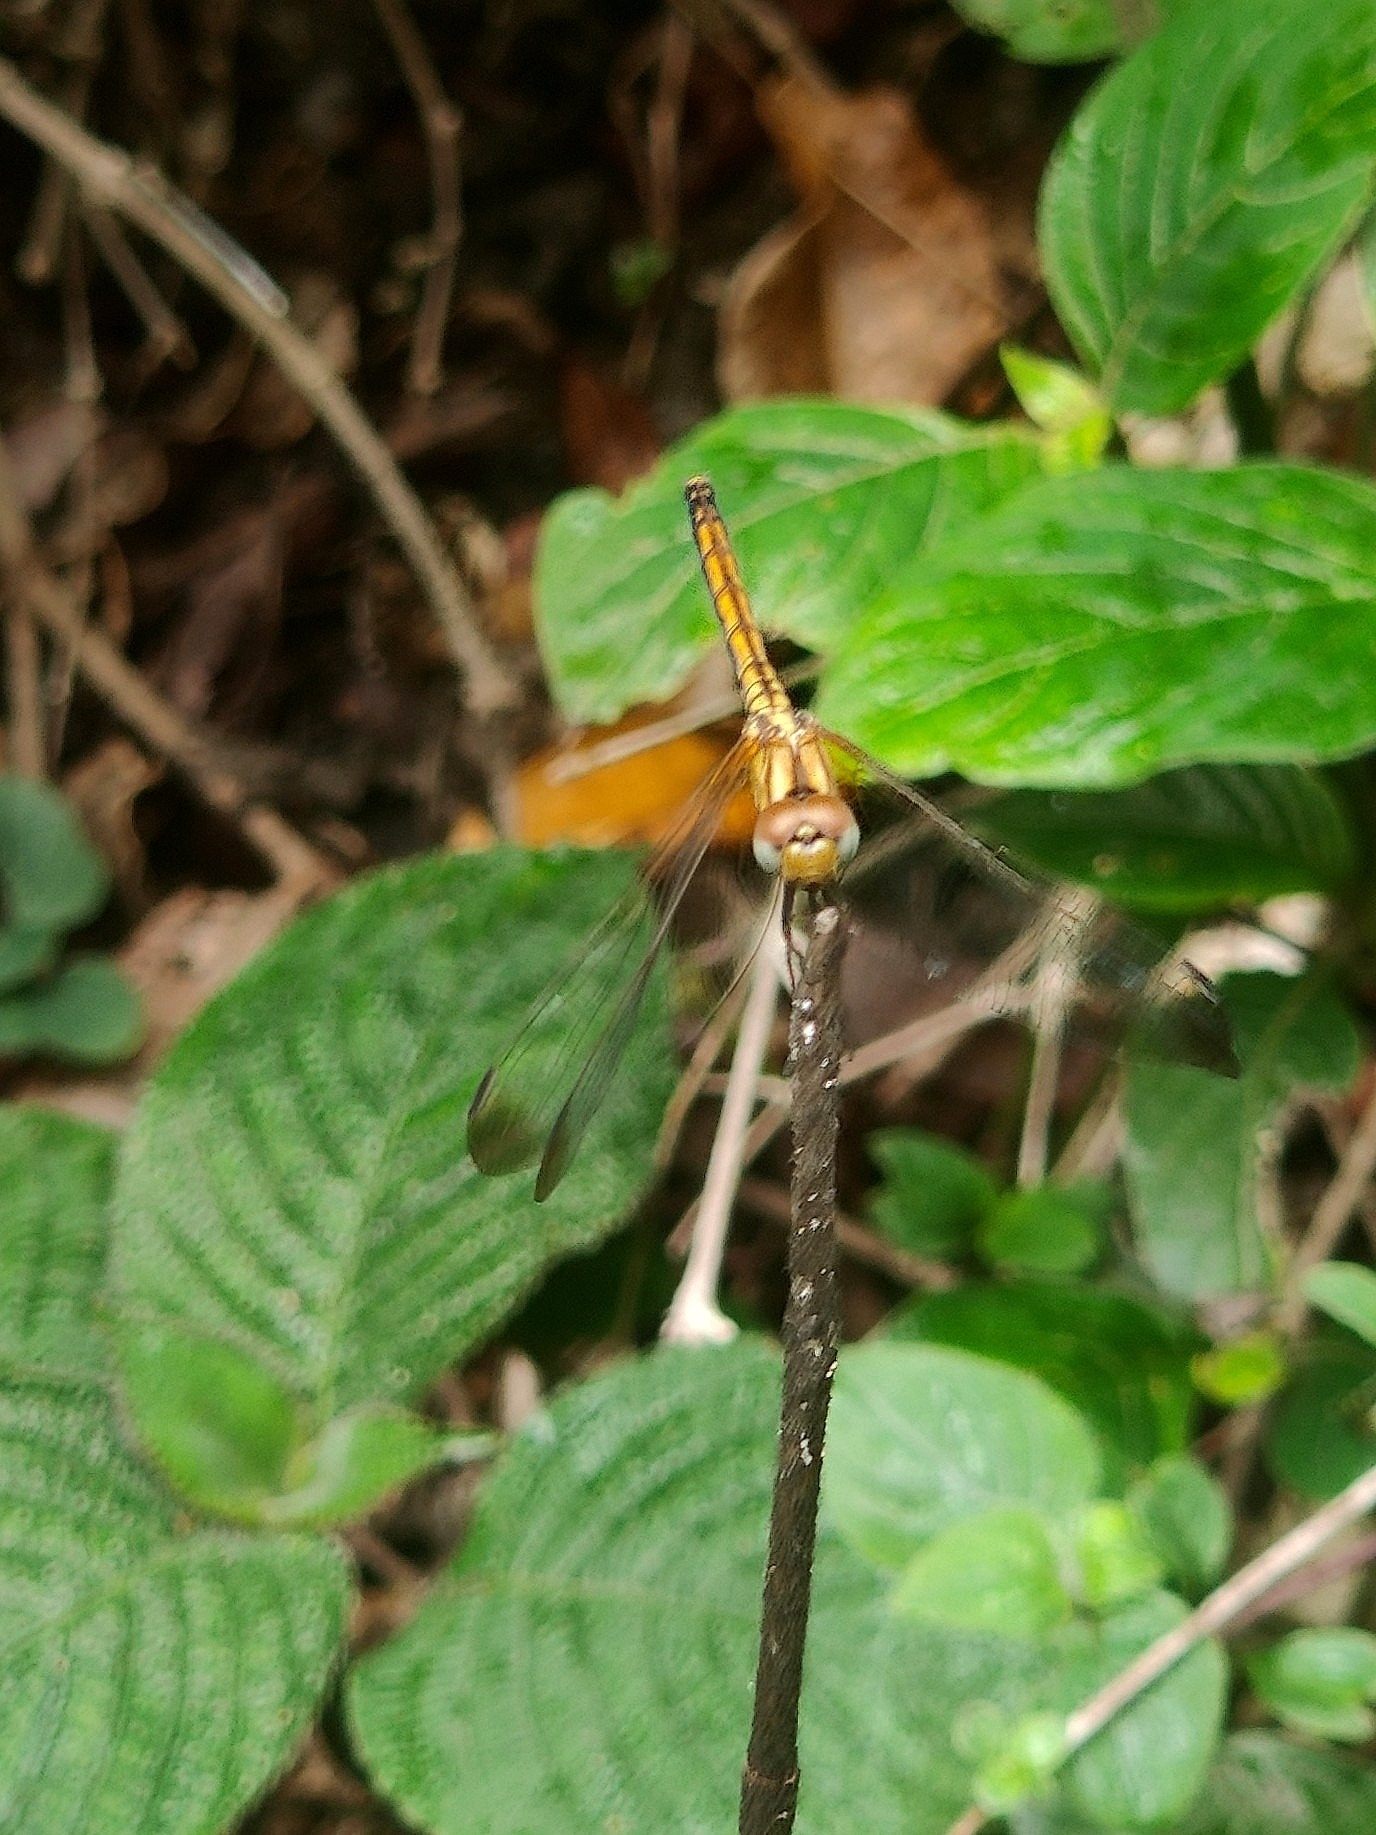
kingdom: Animalia
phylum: Arthropoda
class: Insecta
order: Odonata
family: Libellulidae
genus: Trithemis
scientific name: Trithemis aurora
